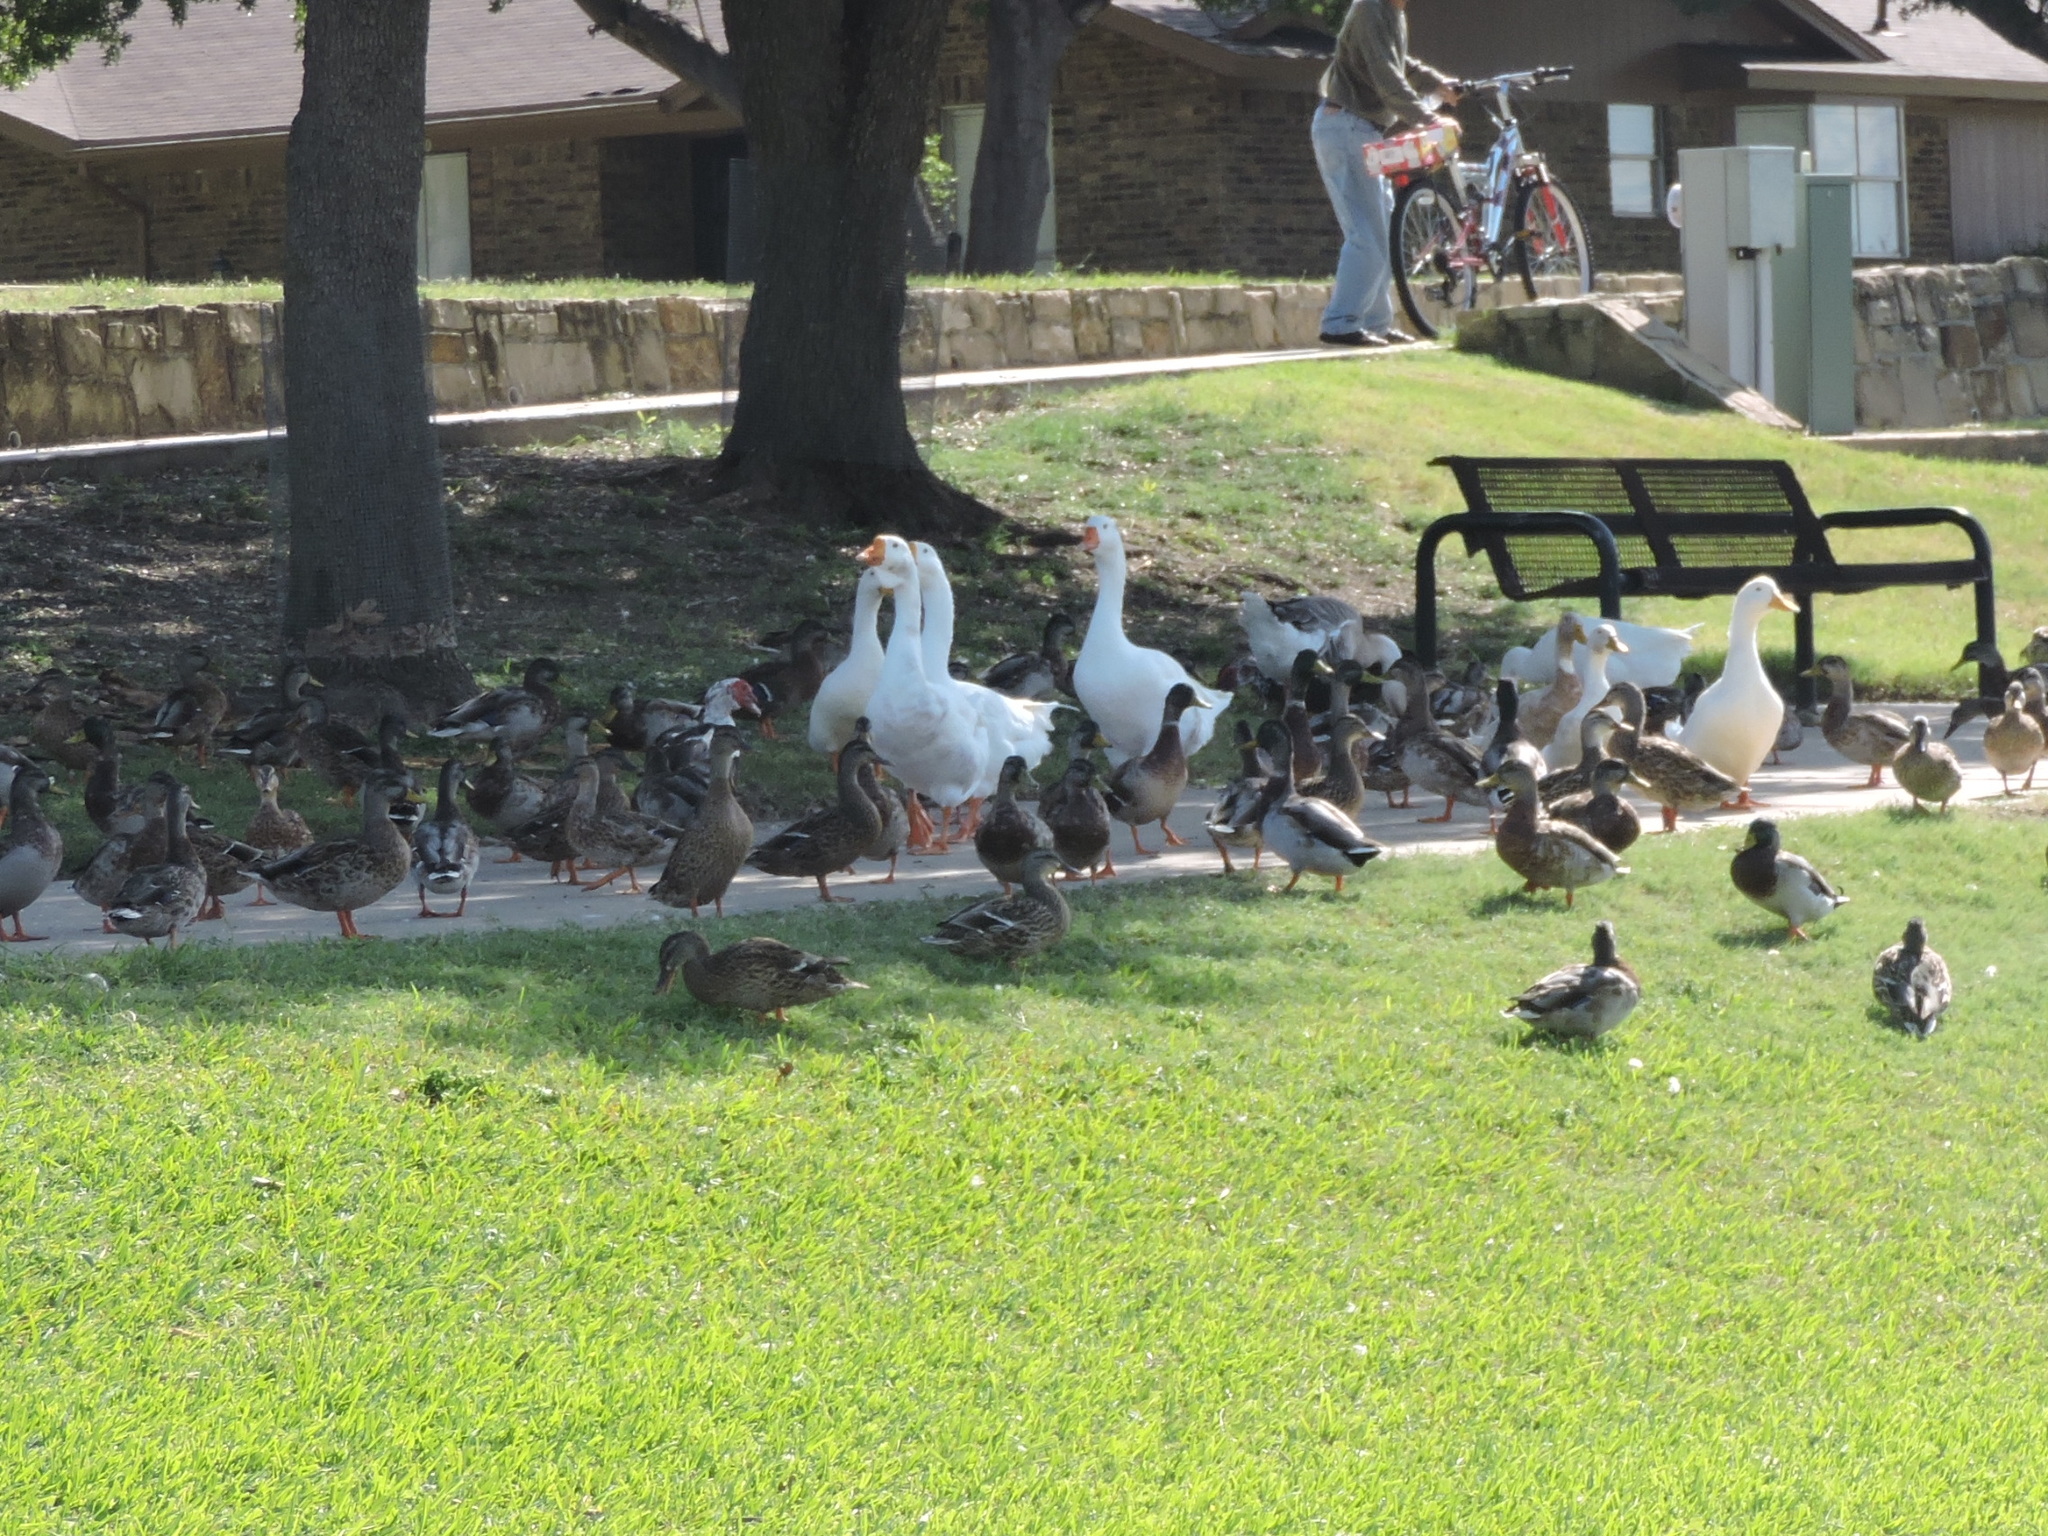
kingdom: Animalia
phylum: Chordata
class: Aves
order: Anseriformes
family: Anatidae
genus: Anas
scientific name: Anas platyrhynchos
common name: Mallard
